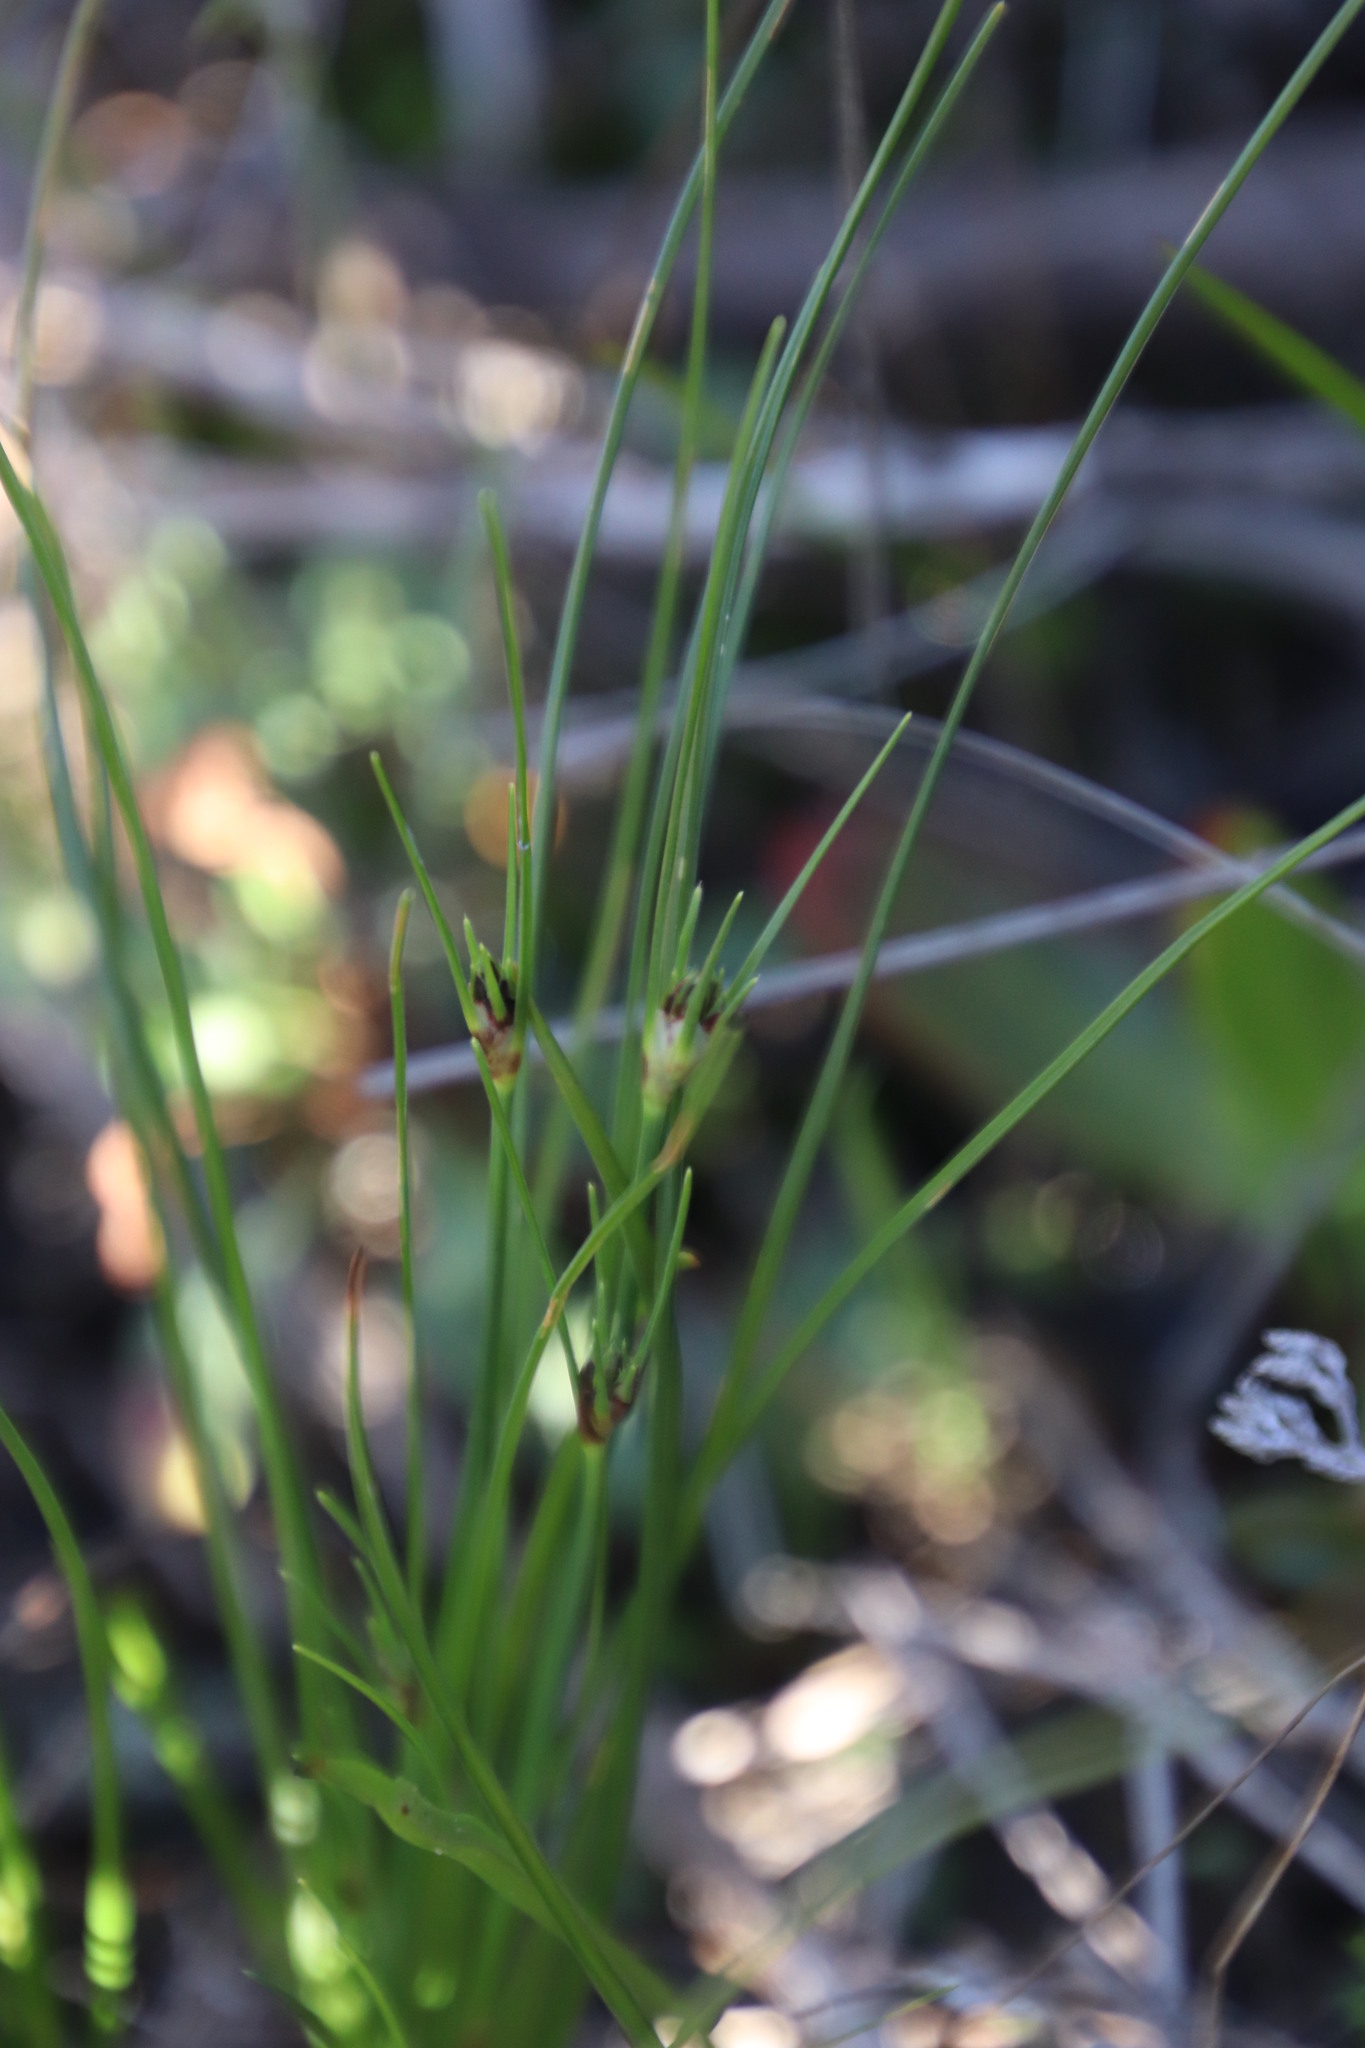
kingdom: Plantae
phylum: Tracheophyta
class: Liliopsida
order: Poales
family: Cyperaceae
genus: Ficinia
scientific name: Ficinia indica
